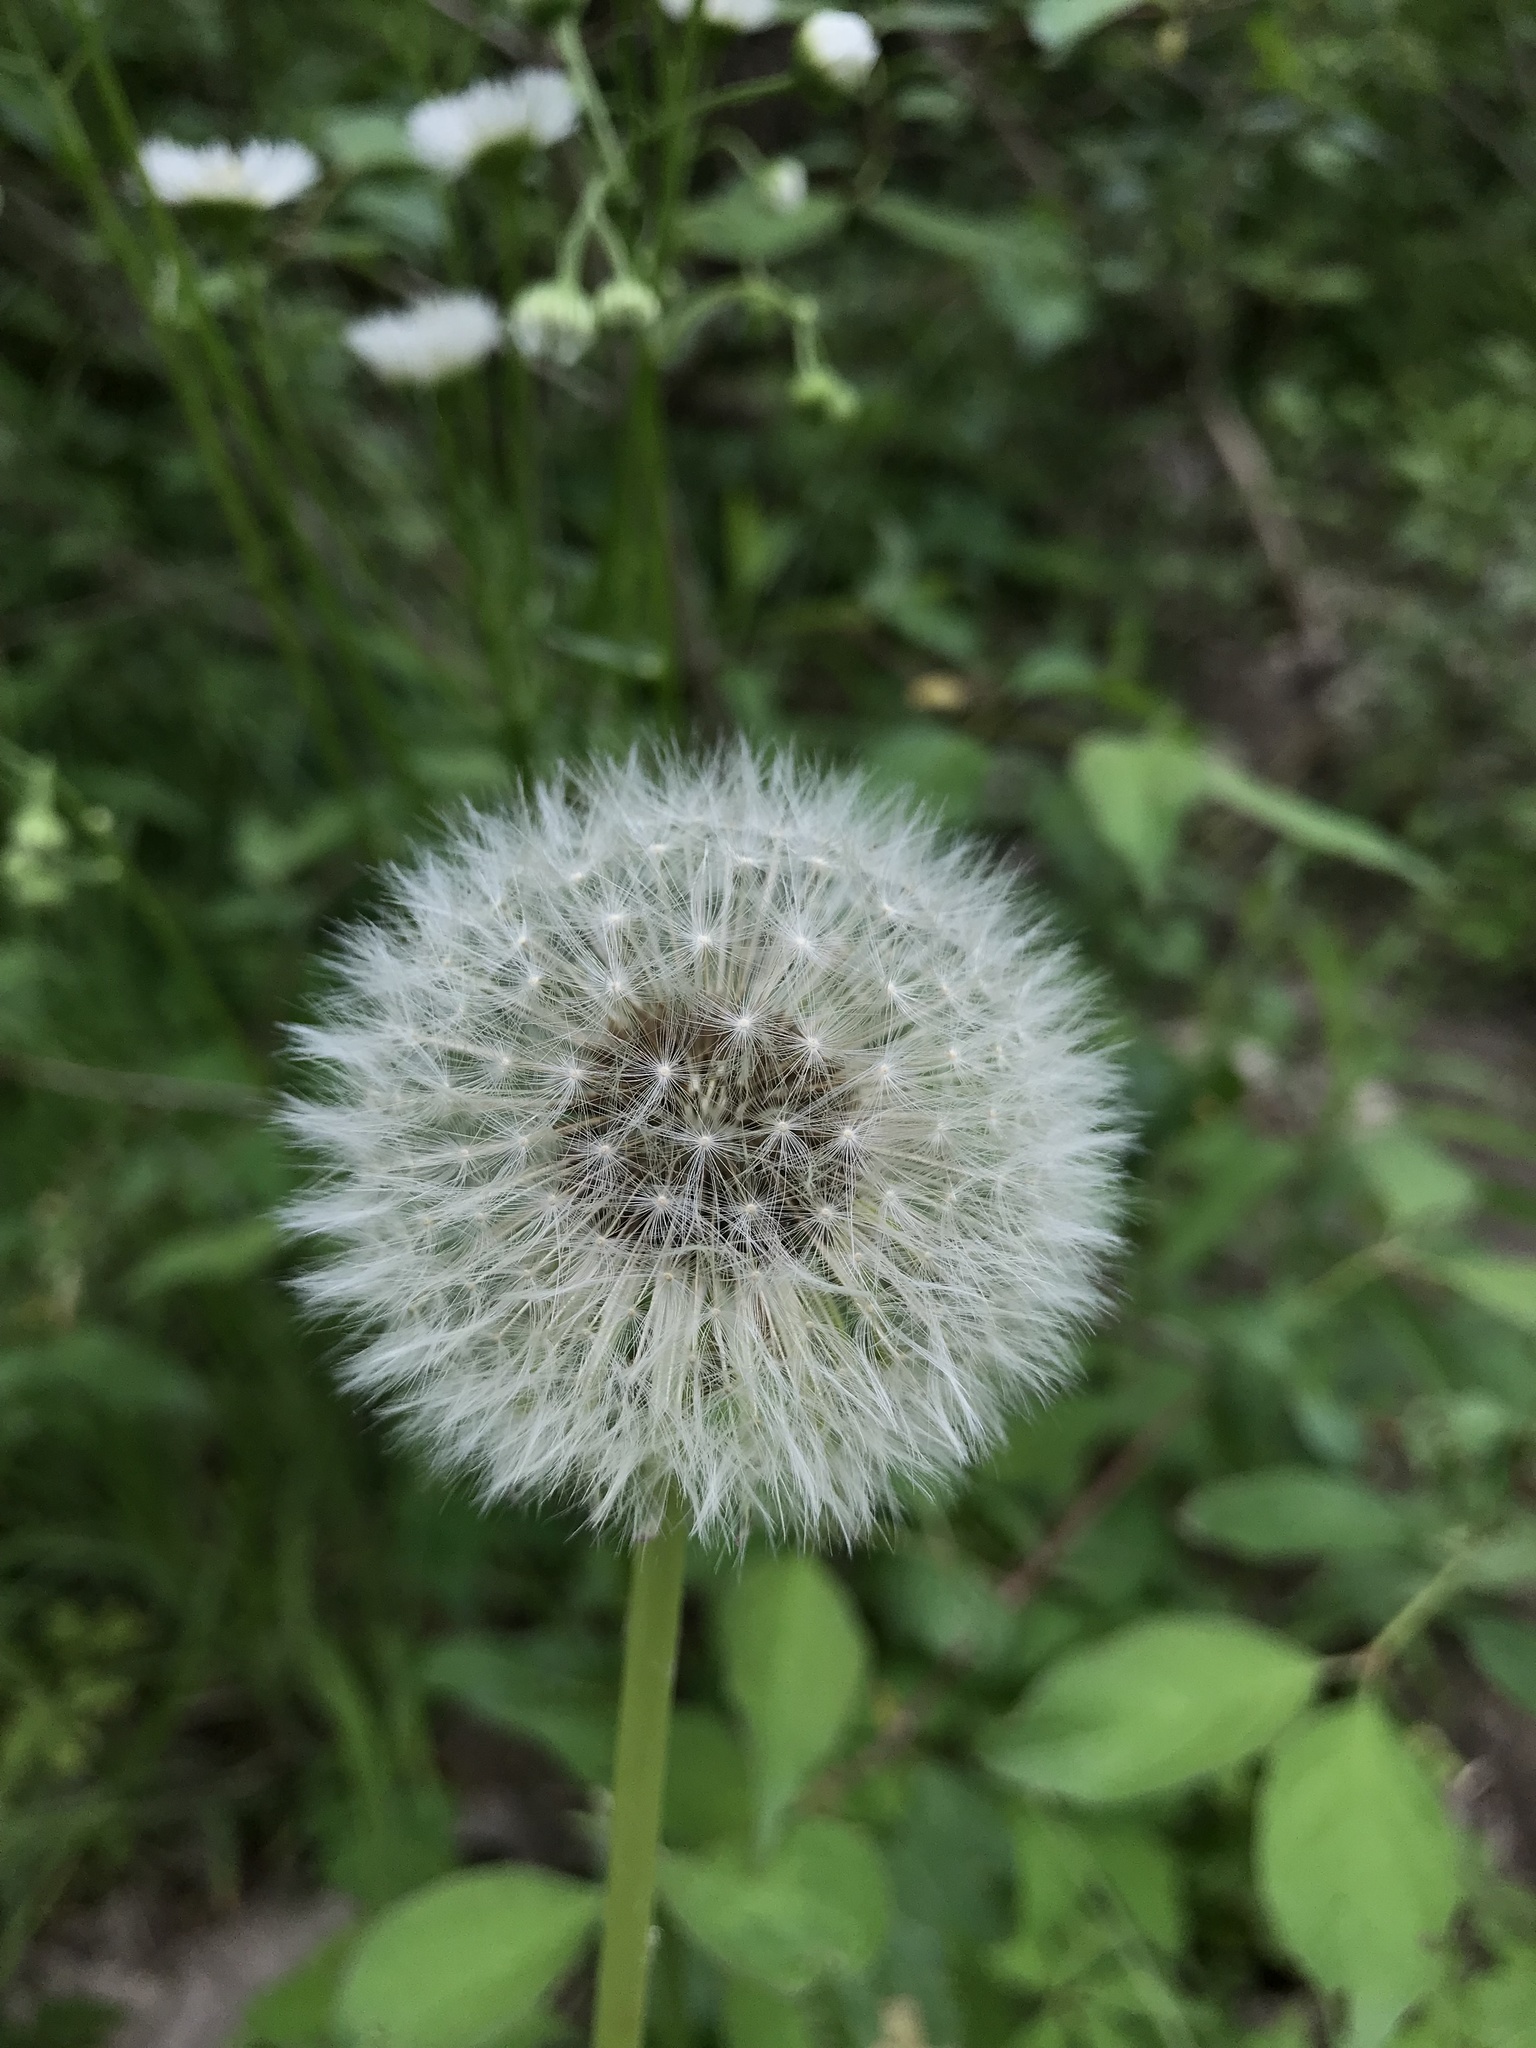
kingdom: Plantae
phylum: Tracheophyta
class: Magnoliopsida
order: Asterales
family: Asteraceae
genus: Taraxacum
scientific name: Taraxacum officinale
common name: Common dandelion
